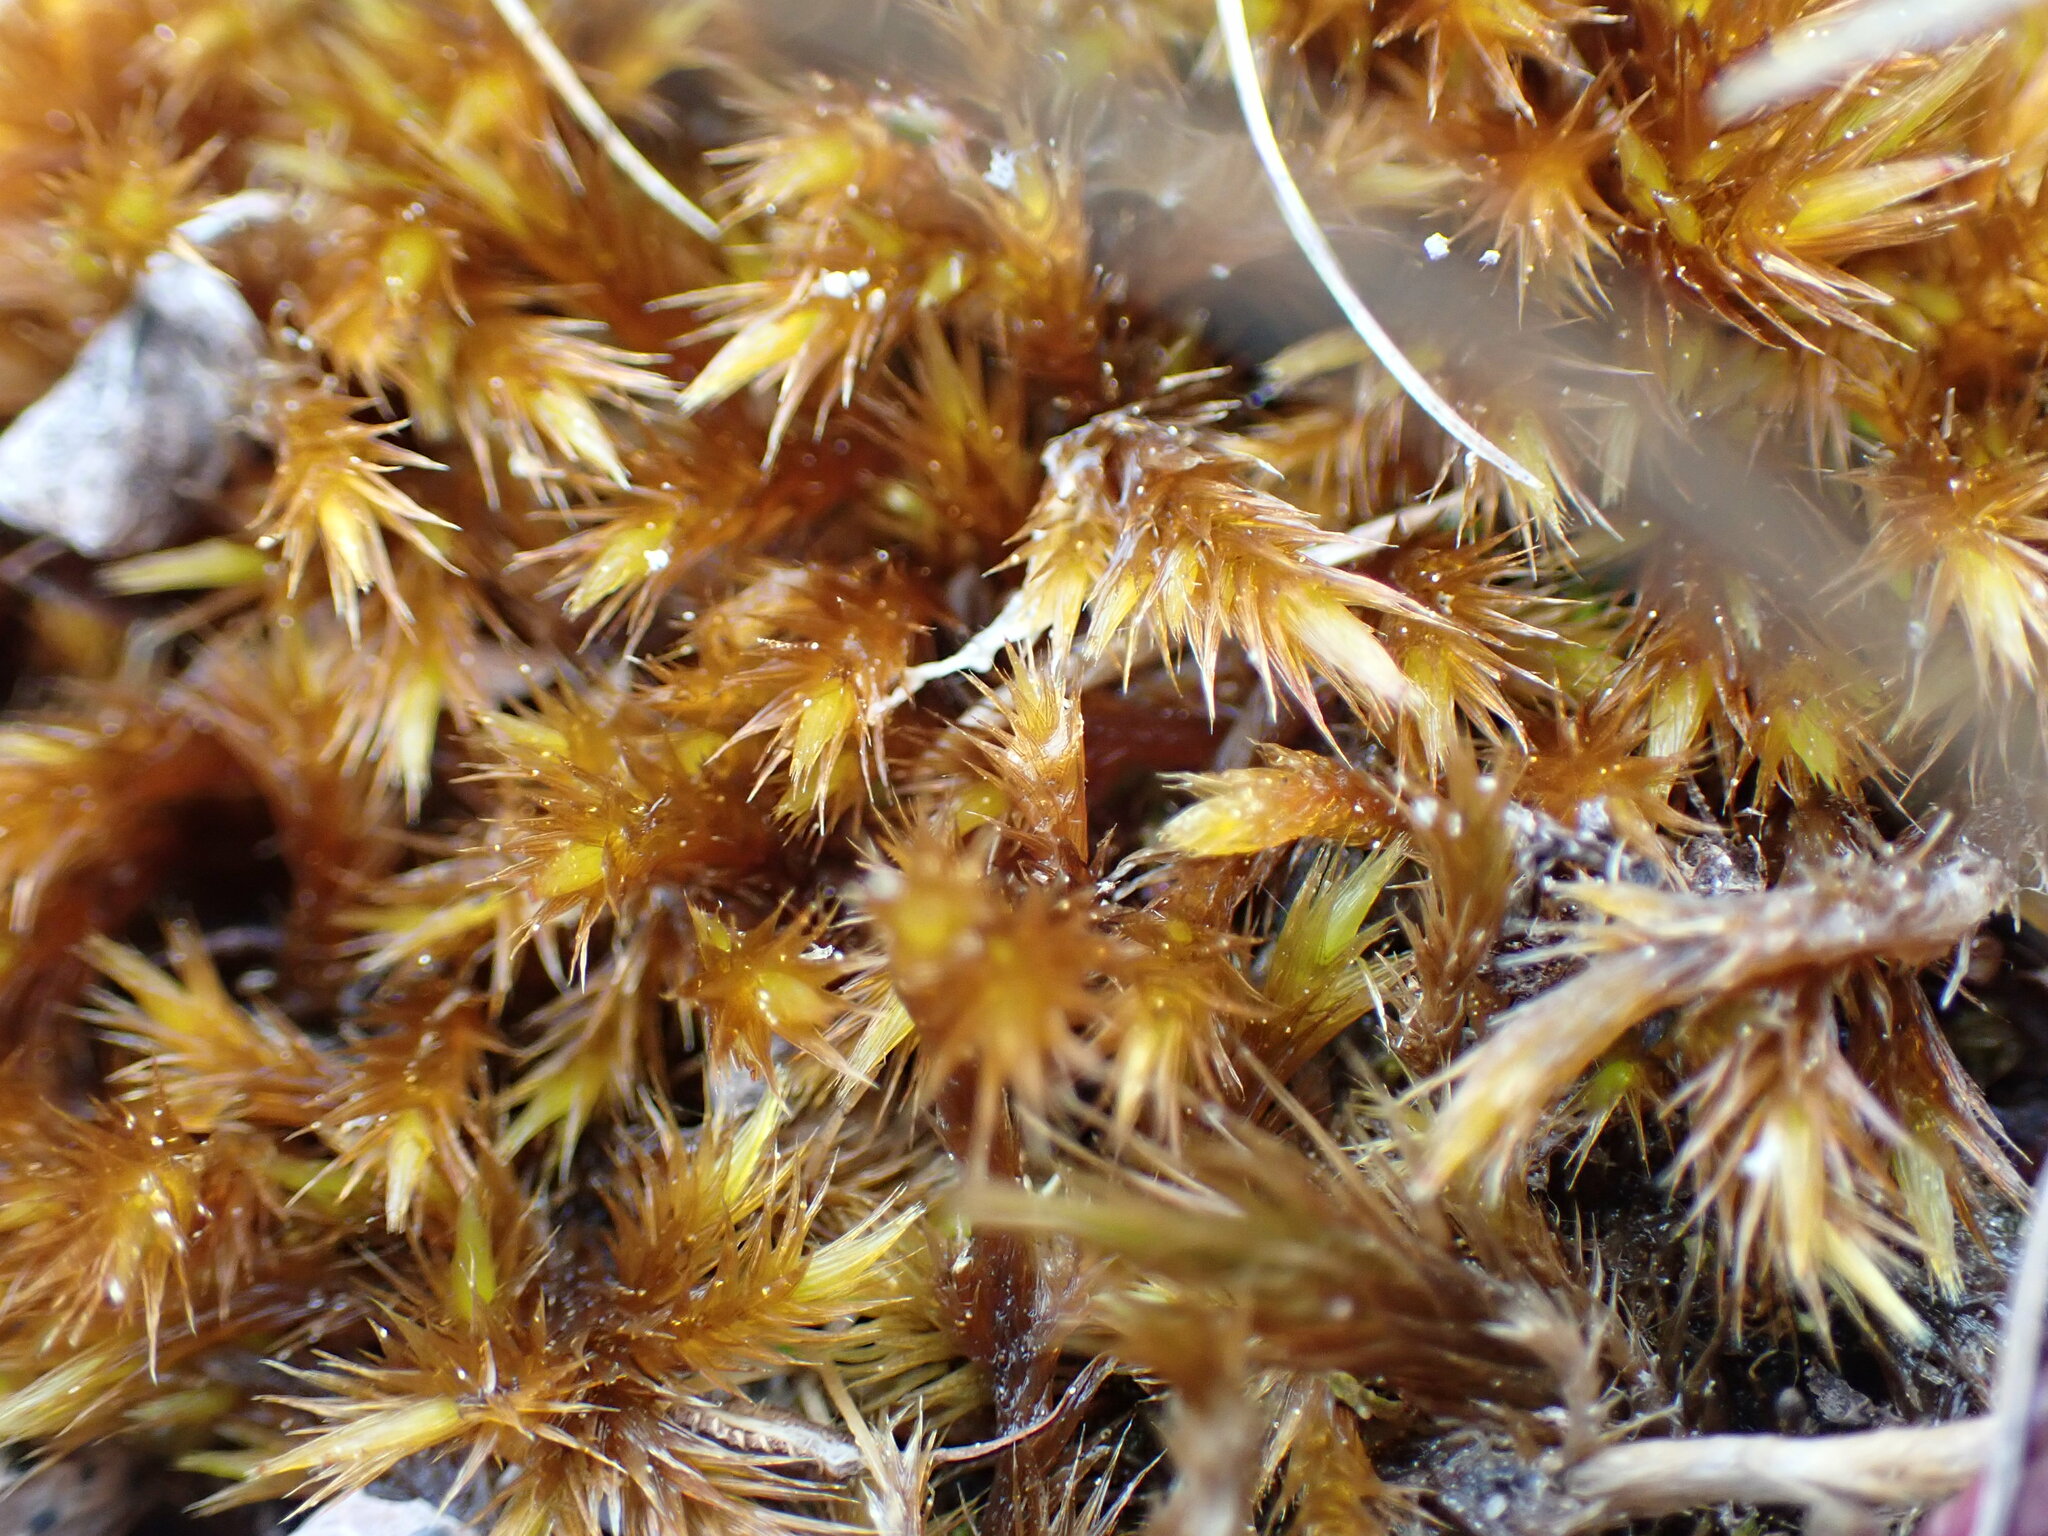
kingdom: Plantae
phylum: Bryophyta
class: Bryopsida
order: Hypnales
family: Amblystegiaceae
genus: Tomentypnum
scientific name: Tomentypnum nitens
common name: Golden fuzzy fen moss
